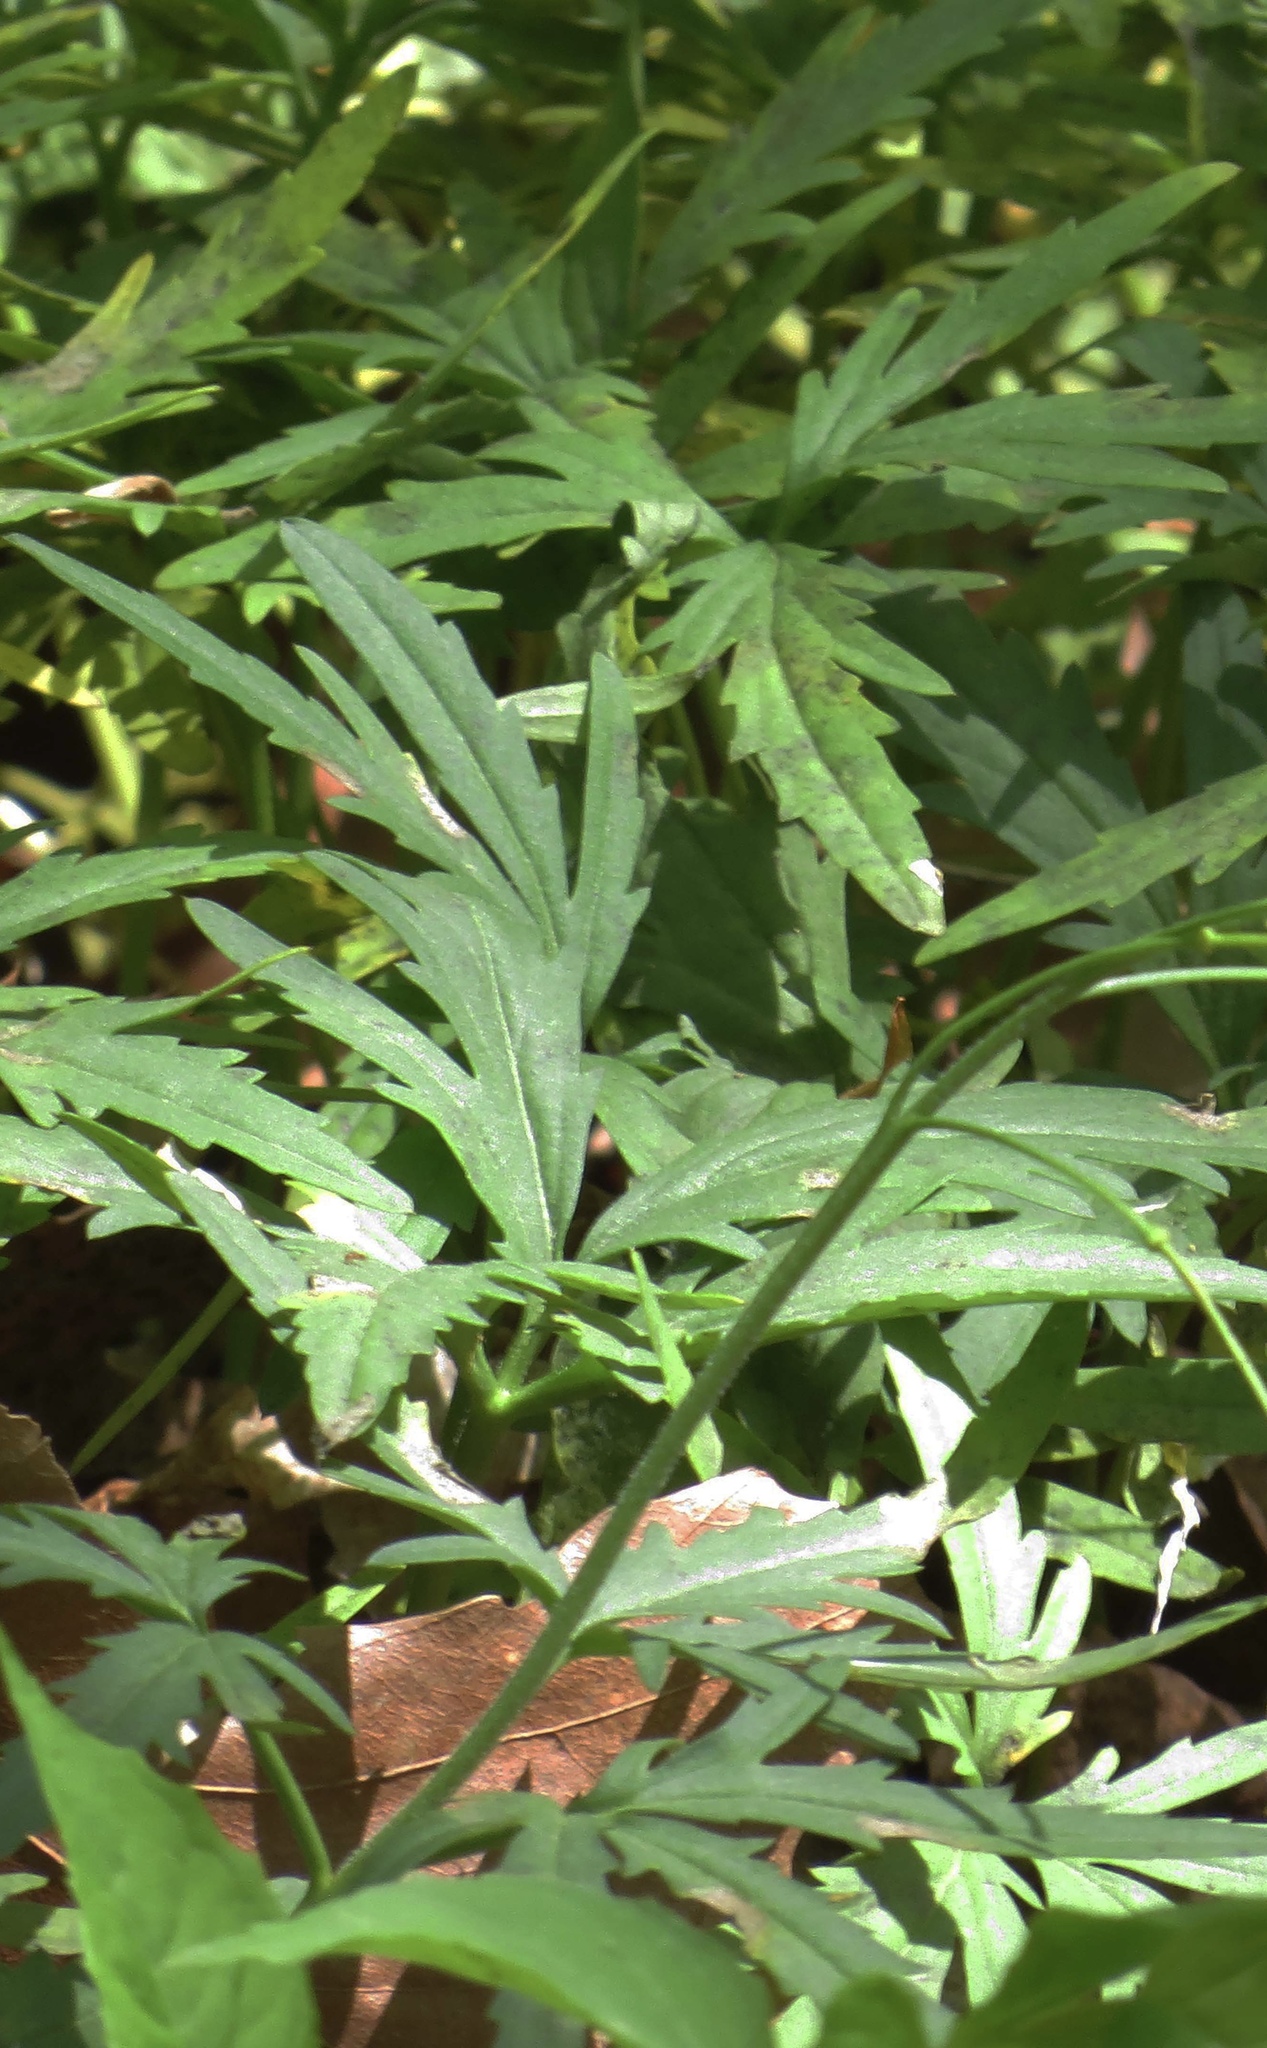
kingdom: Plantae
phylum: Tracheophyta
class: Magnoliopsida
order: Brassicales
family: Brassicaceae
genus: Cardamine
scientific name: Cardamine concatenata
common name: Cut-leaf toothcup
